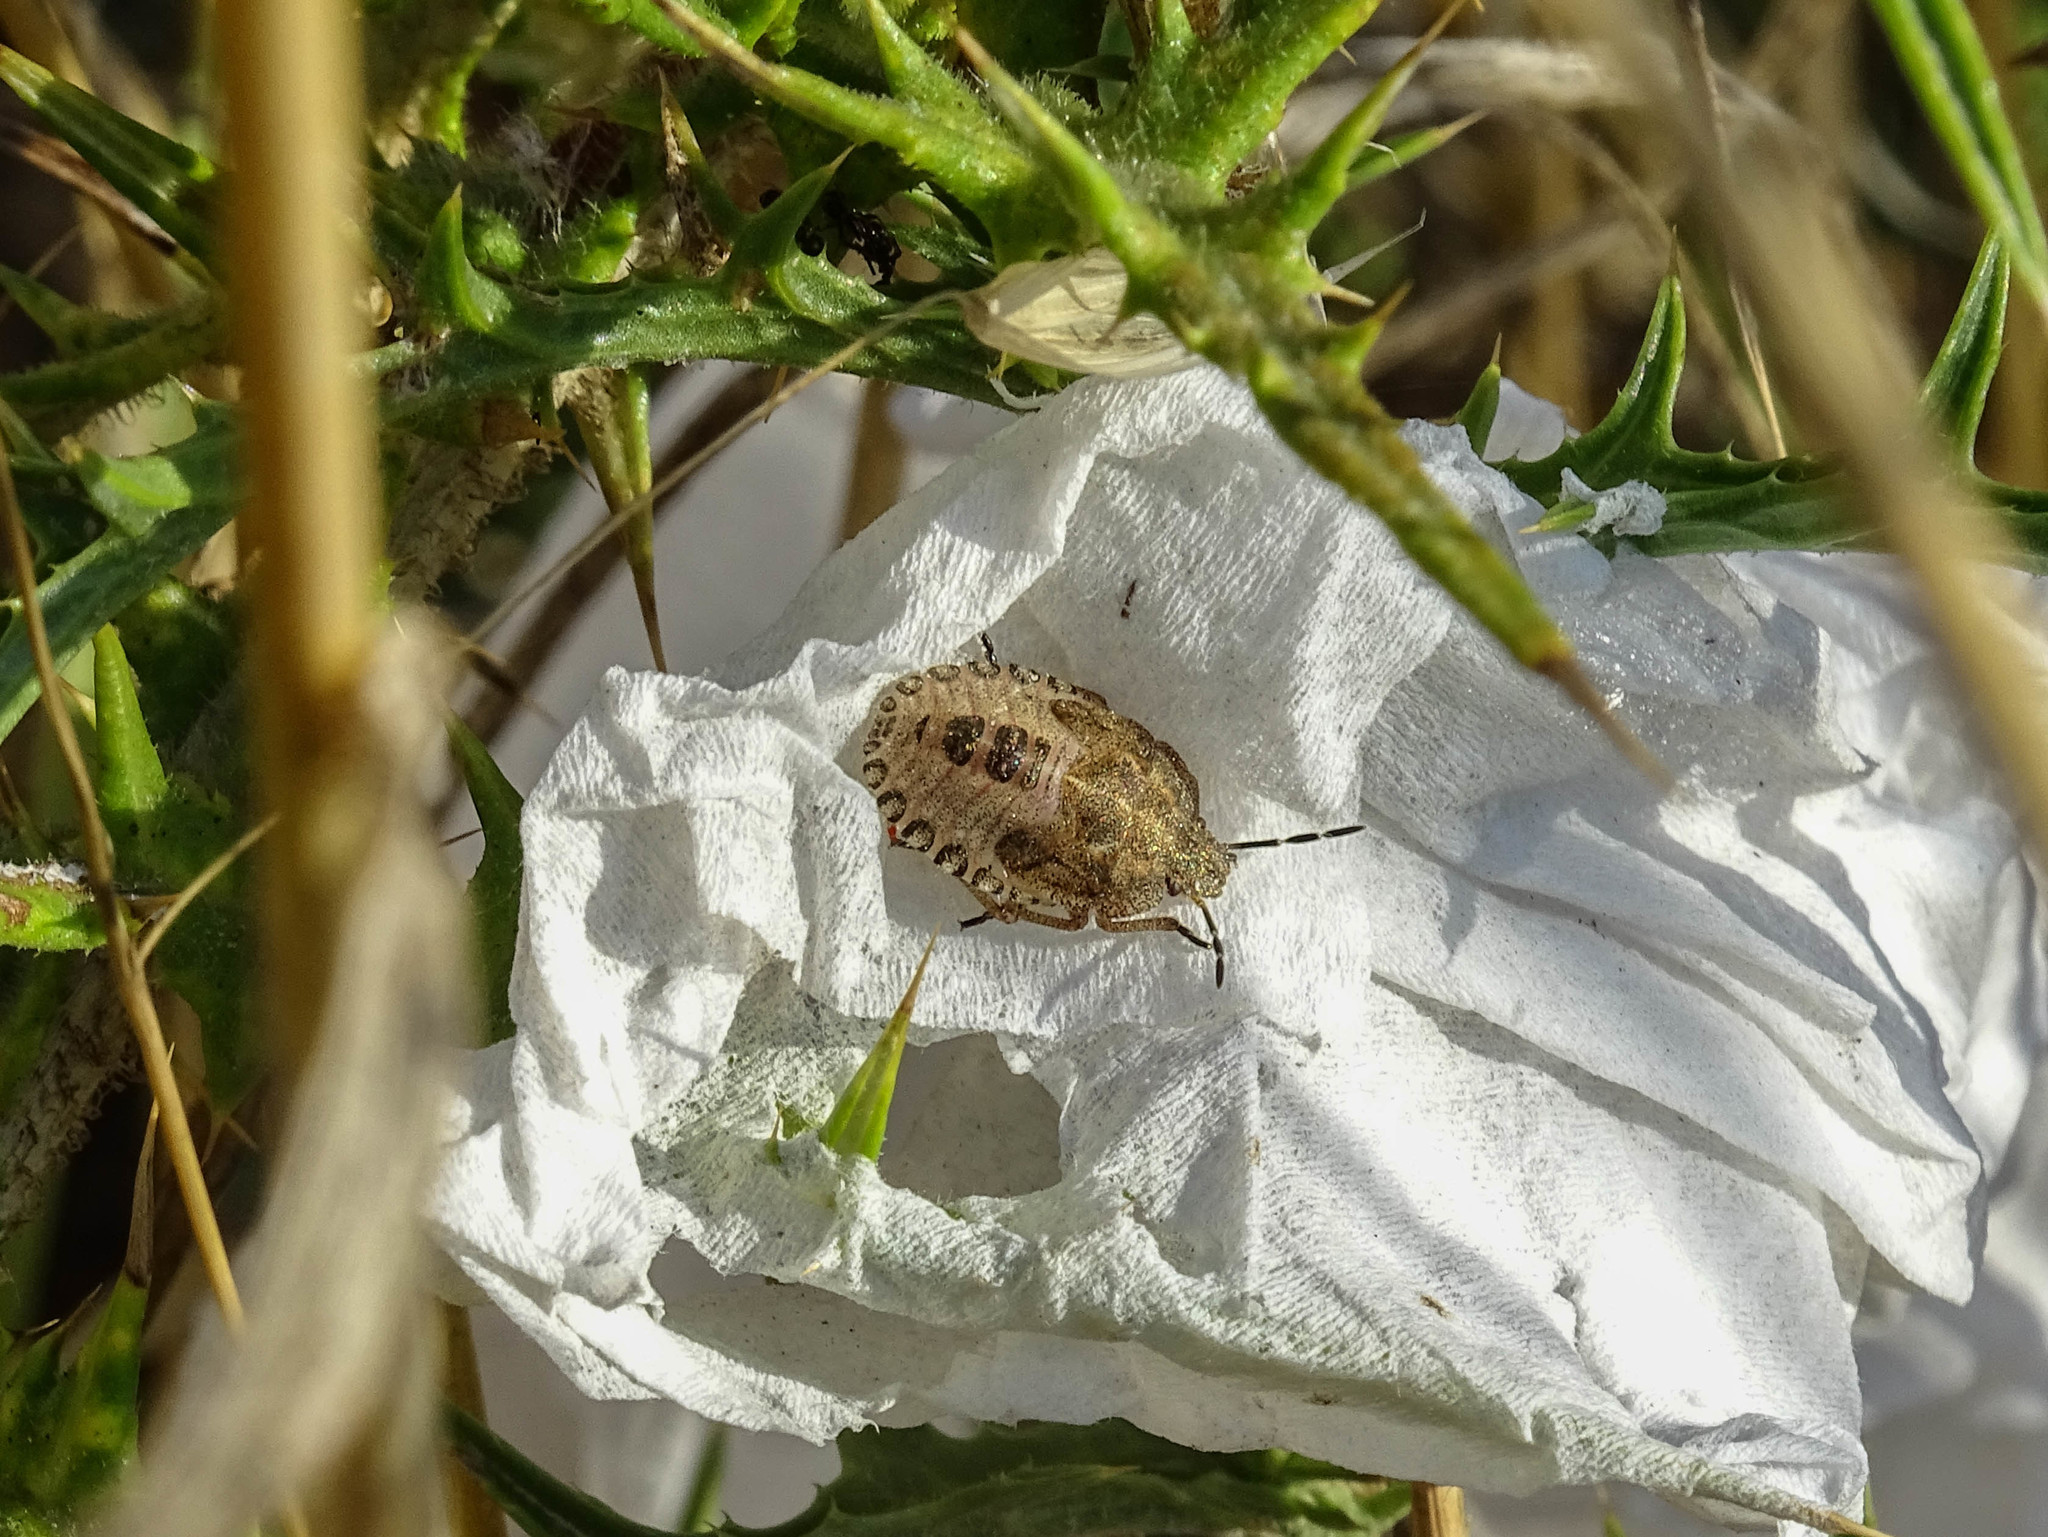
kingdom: Animalia
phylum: Arthropoda
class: Insecta
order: Hemiptera
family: Pentatomidae
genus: Dolycoris
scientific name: Dolycoris baccarum
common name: Sloe bug
